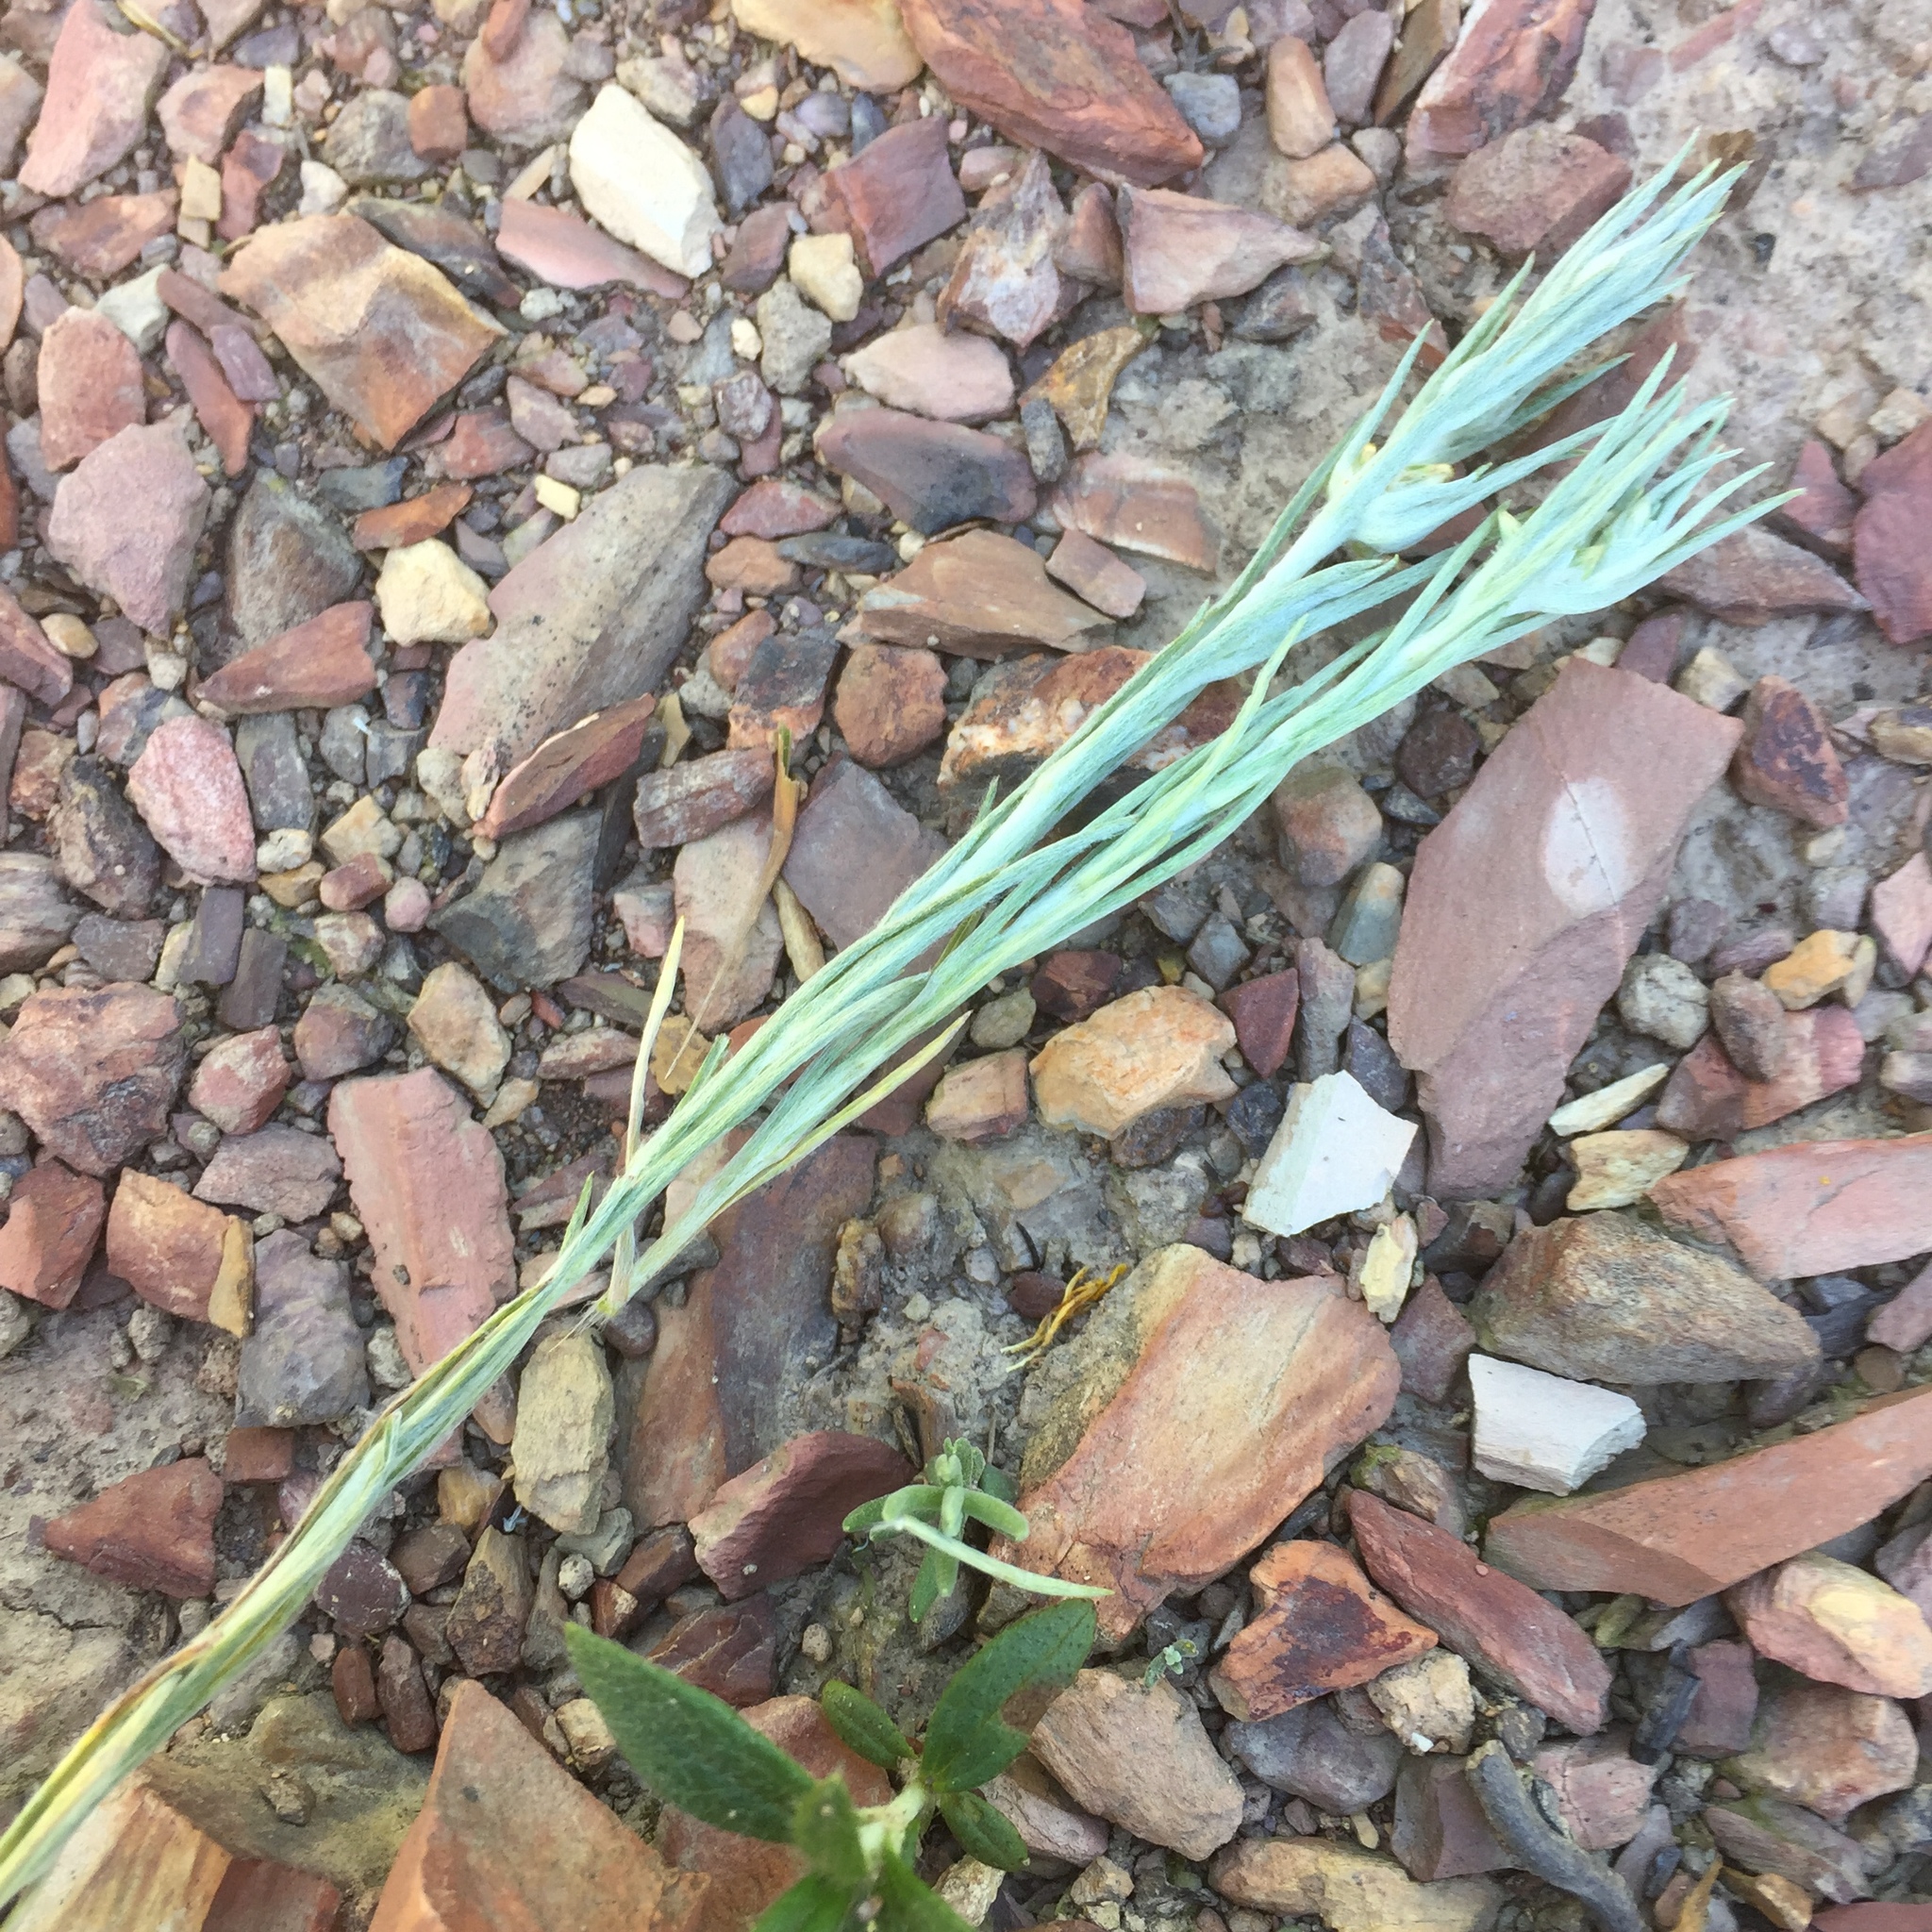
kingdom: Plantae
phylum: Tracheophyta
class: Magnoliopsida
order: Asterales
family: Asteraceae
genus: Logfia
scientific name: Logfia gallica
